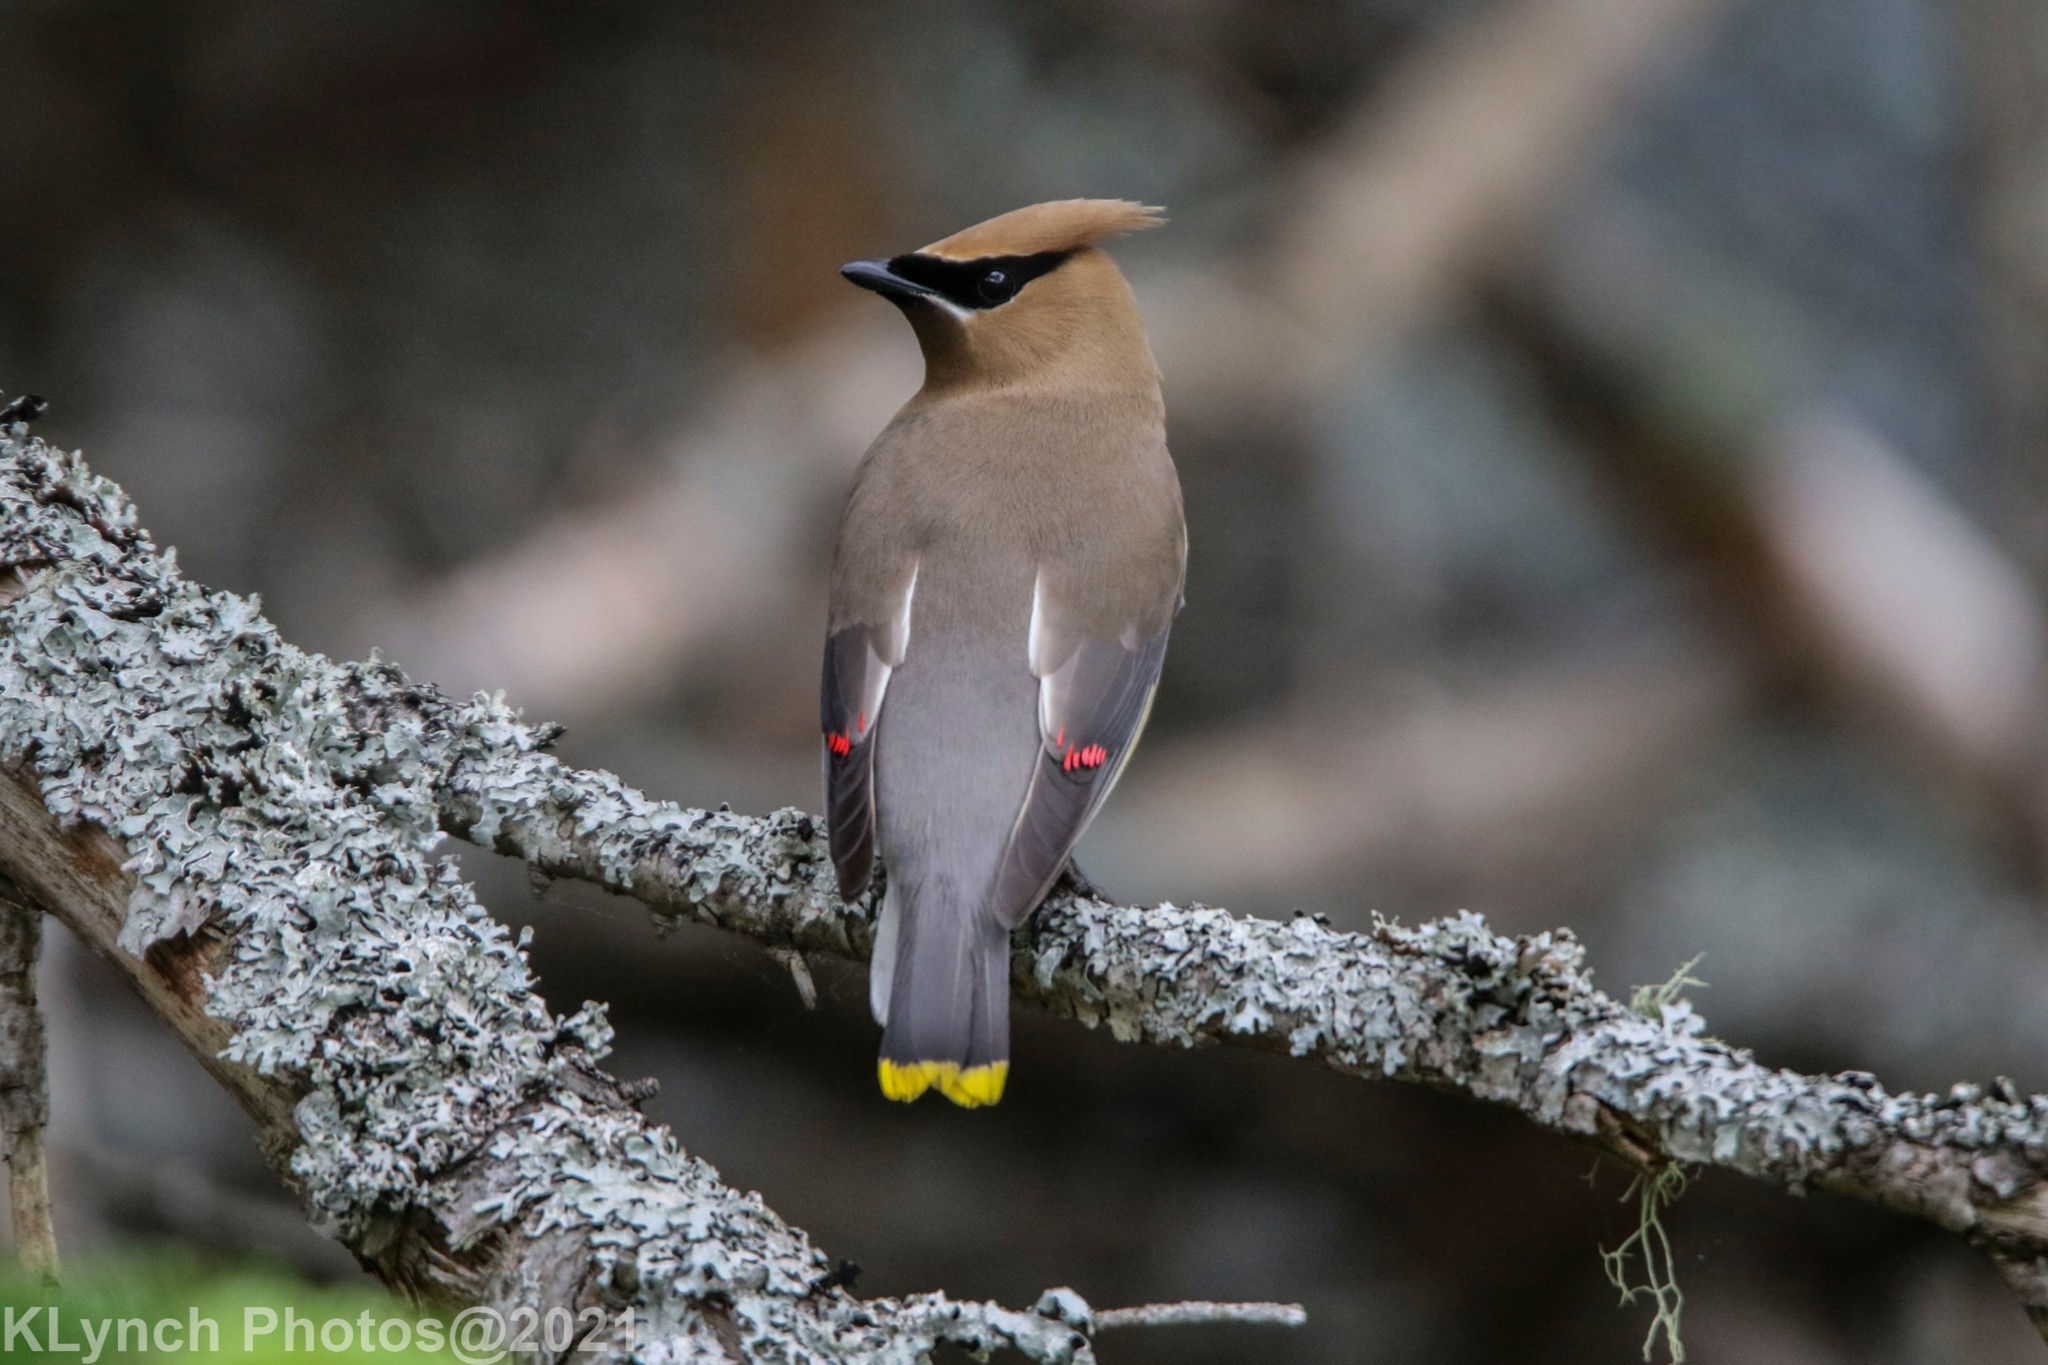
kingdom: Animalia
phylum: Chordata
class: Aves
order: Passeriformes
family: Bombycillidae
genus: Bombycilla
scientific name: Bombycilla cedrorum
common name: Cedar waxwing
